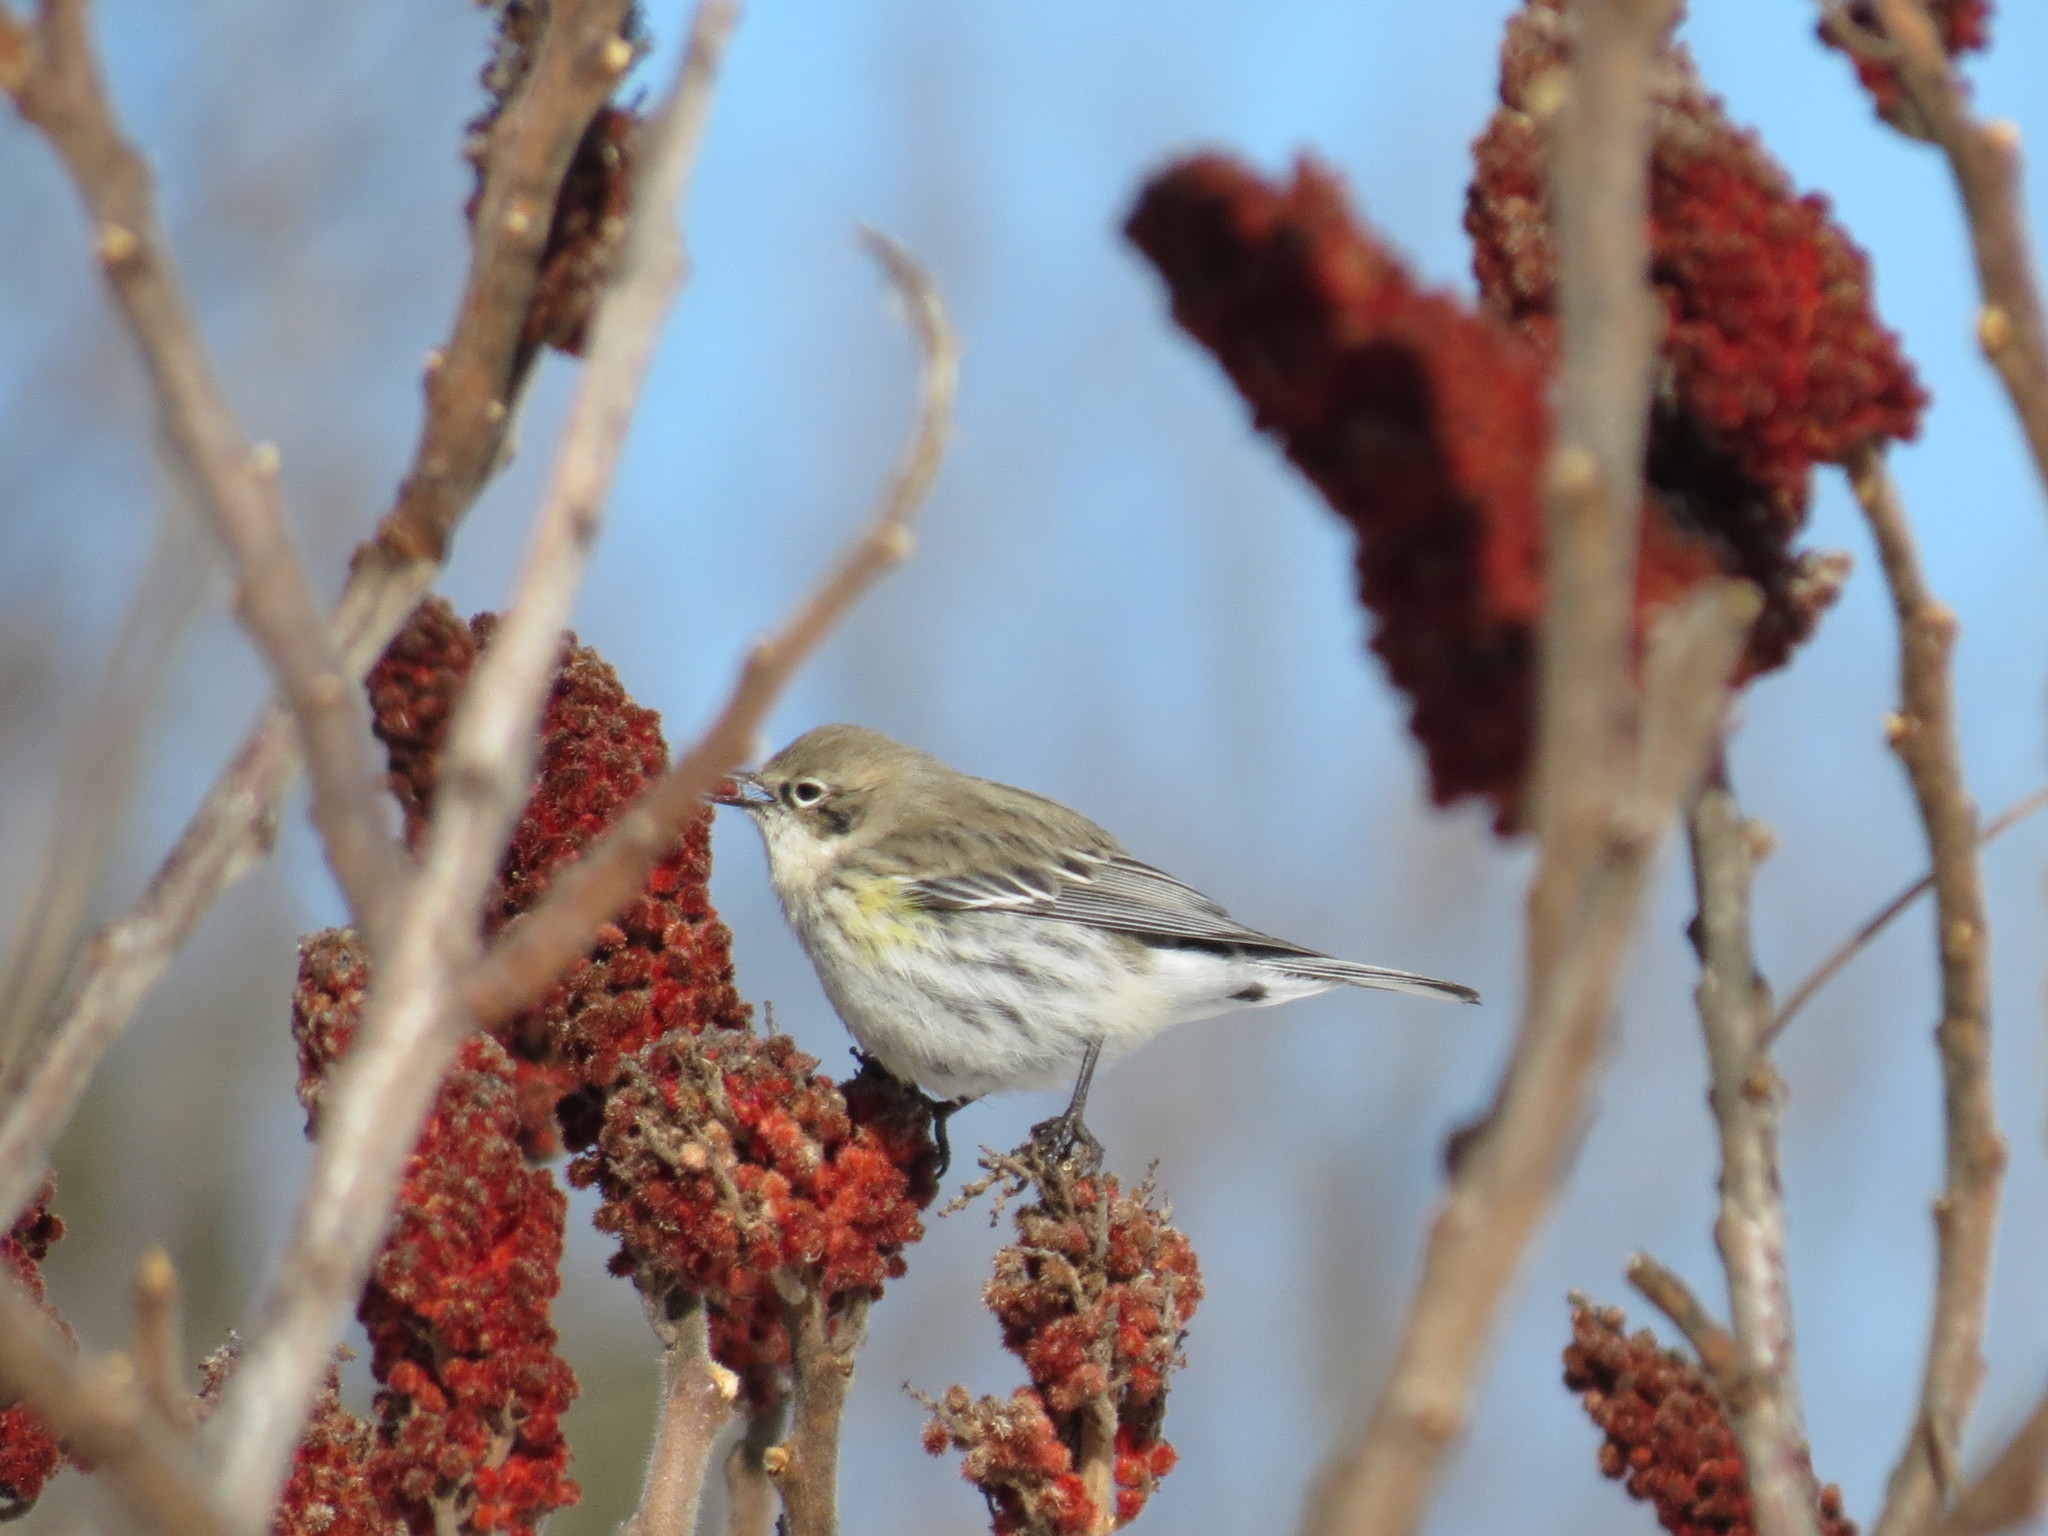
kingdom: Animalia
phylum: Chordata
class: Aves
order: Passeriformes
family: Parulidae
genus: Setophaga
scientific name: Setophaga coronata
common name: Myrtle warbler
